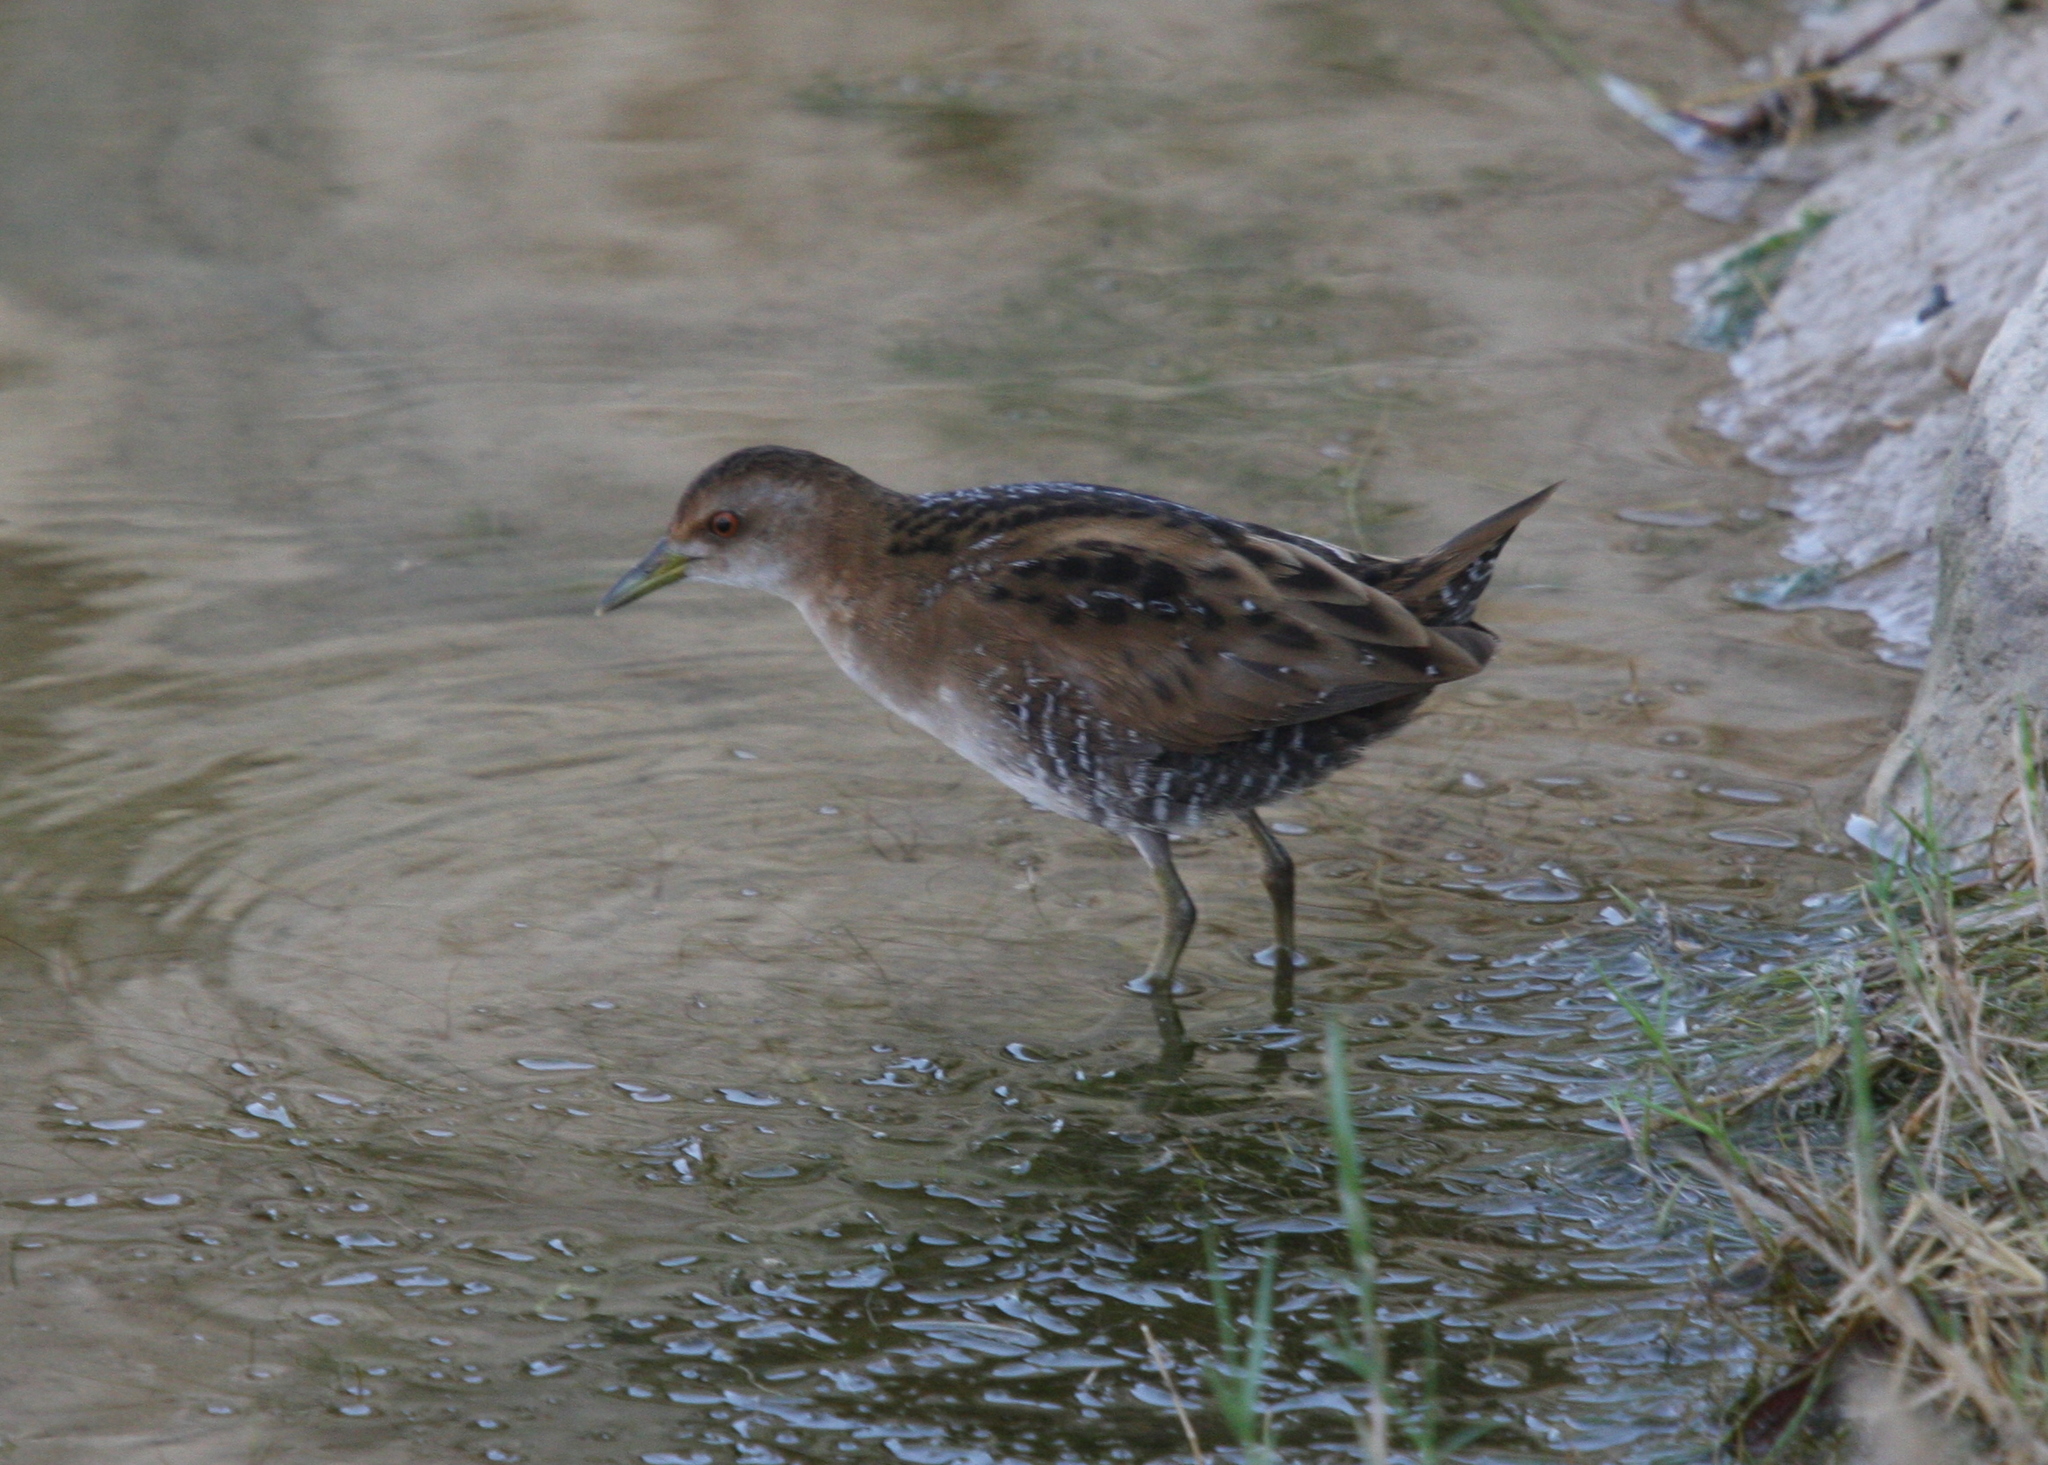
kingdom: Animalia
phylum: Chordata
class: Aves
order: Gruiformes
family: Rallidae
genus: Porzana
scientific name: Porzana pusilla
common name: Baillon's crake
